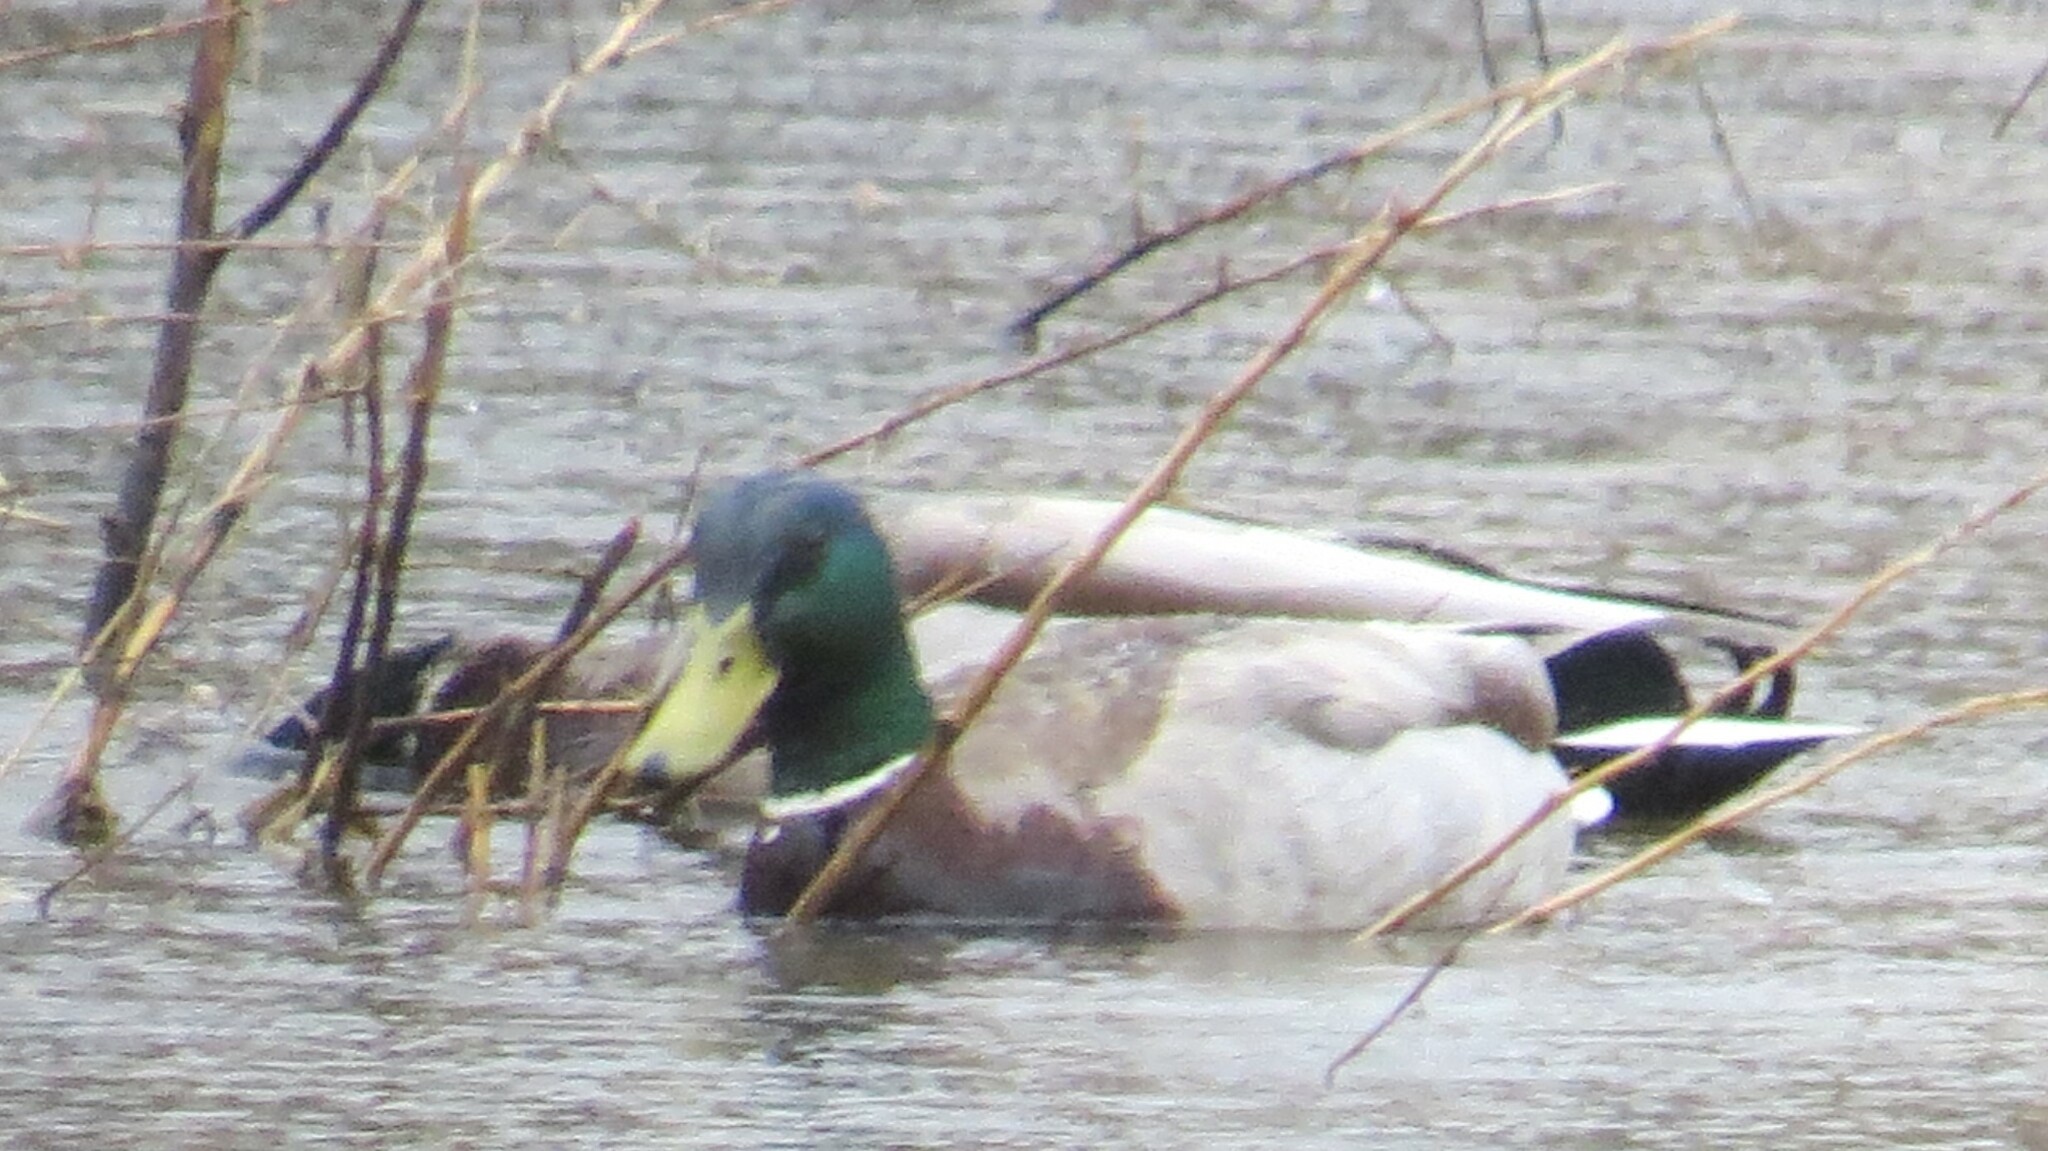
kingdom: Animalia
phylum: Chordata
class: Aves
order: Anseriformes
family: Anatidae
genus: Anas
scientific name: Anas platyrhynchos
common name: Mallard
